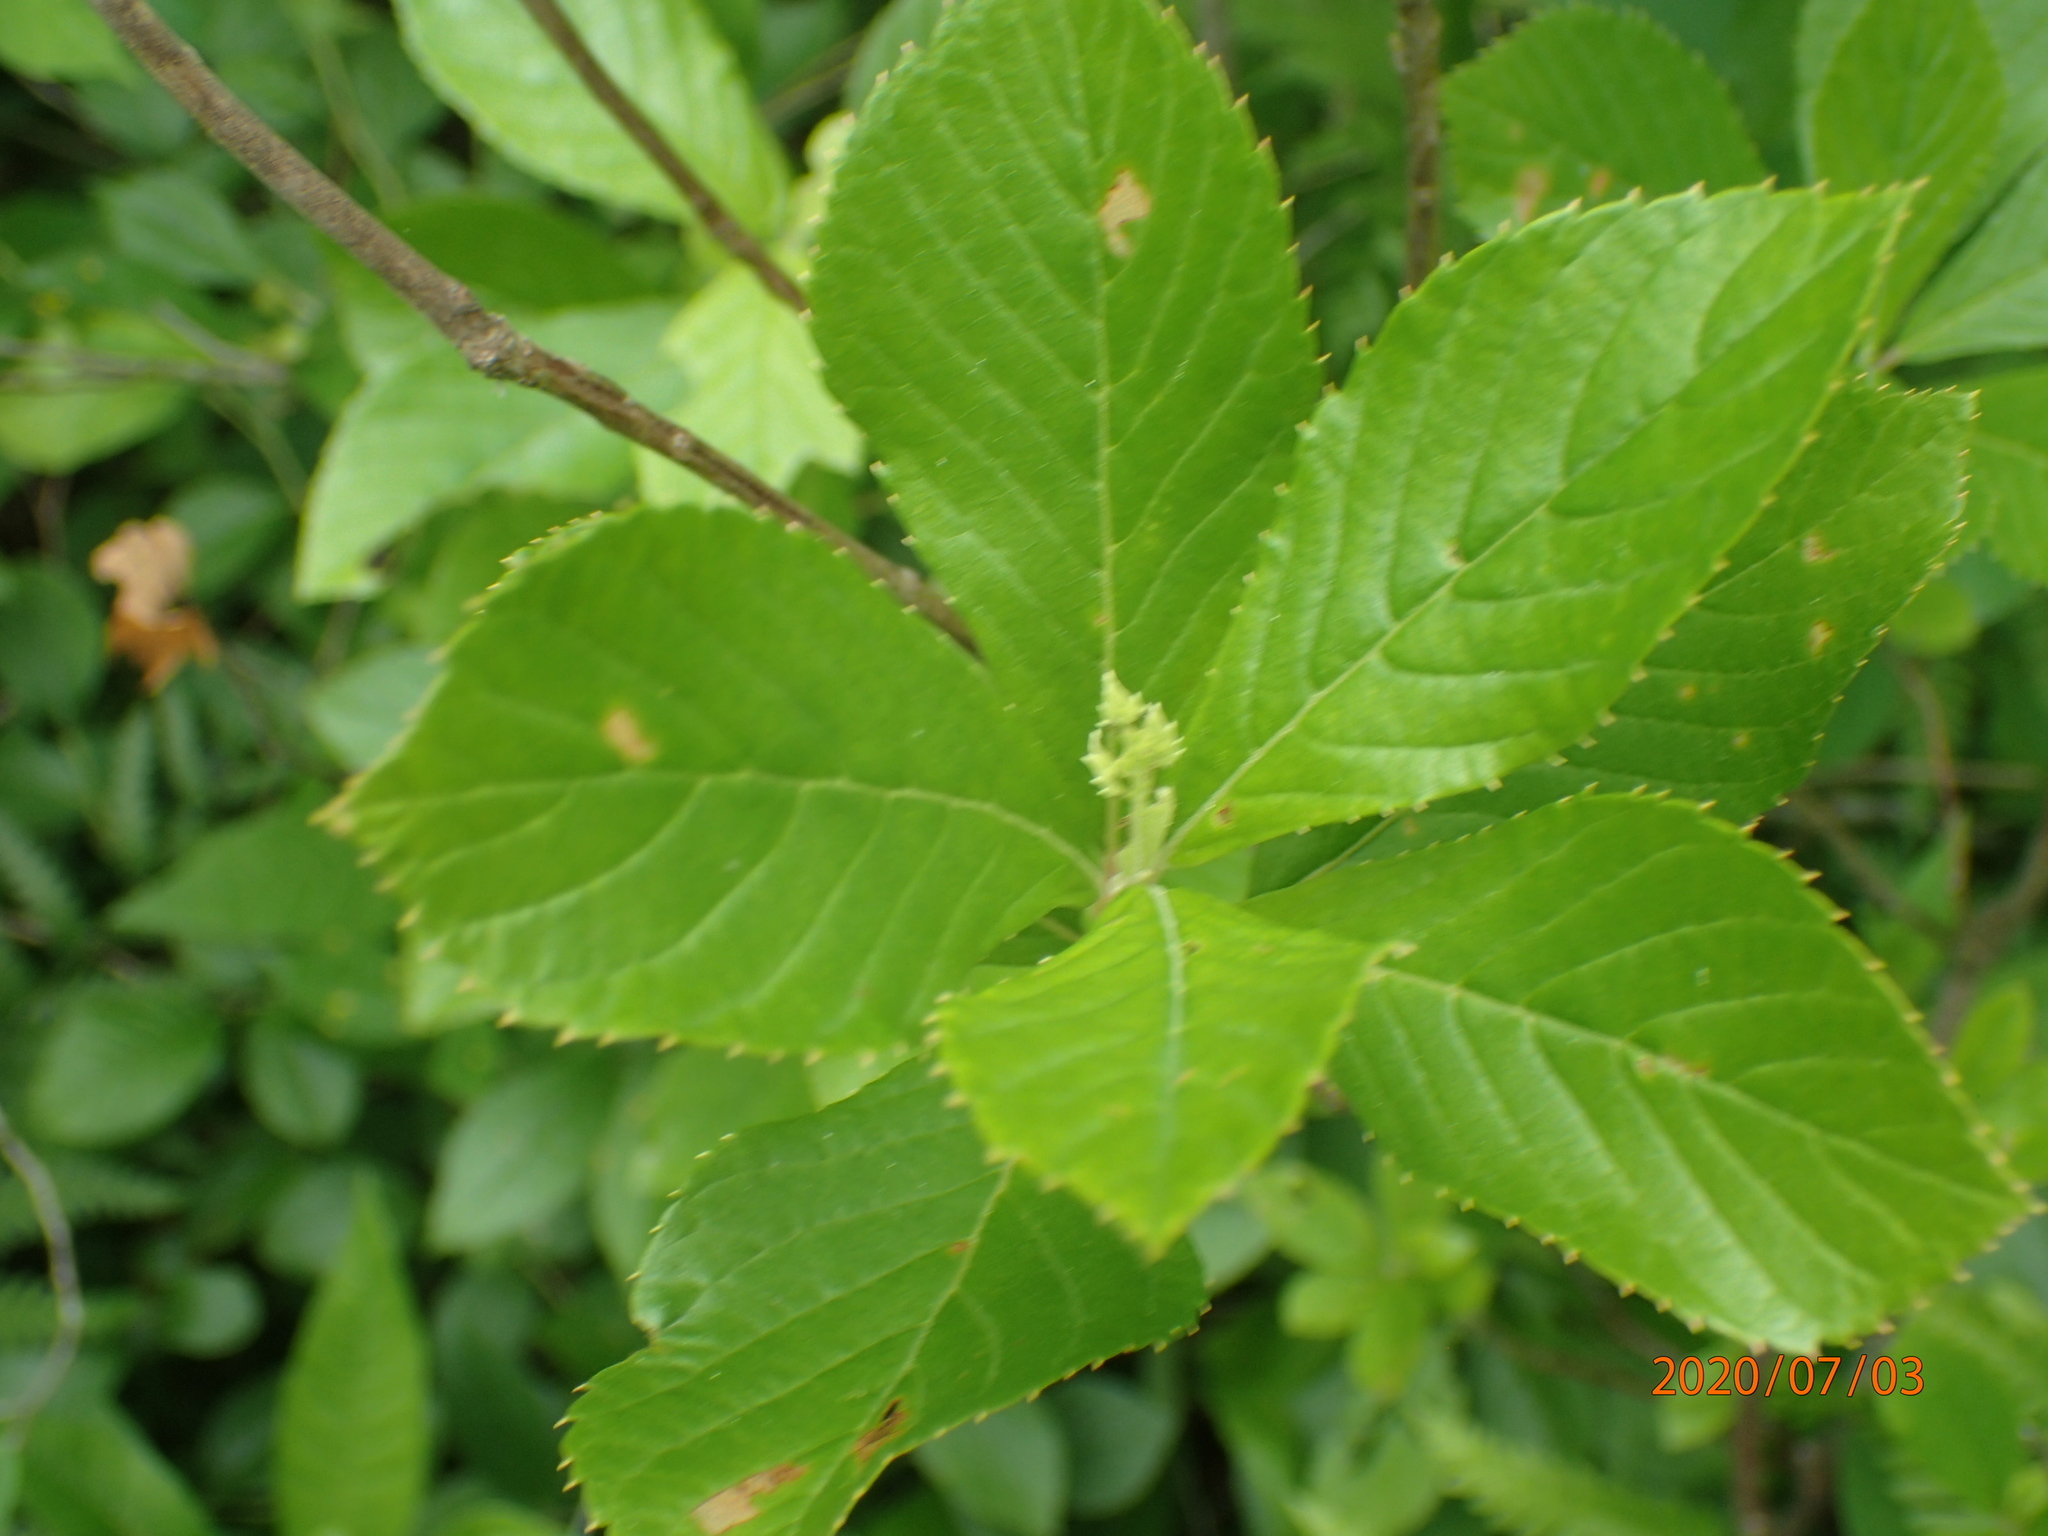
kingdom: Plantae
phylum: Tracheophyta
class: Magnoliopsida
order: Ericales
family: Clethraceae
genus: Clethra
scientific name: Clethra alnifolia
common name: Sweet pepperbush
